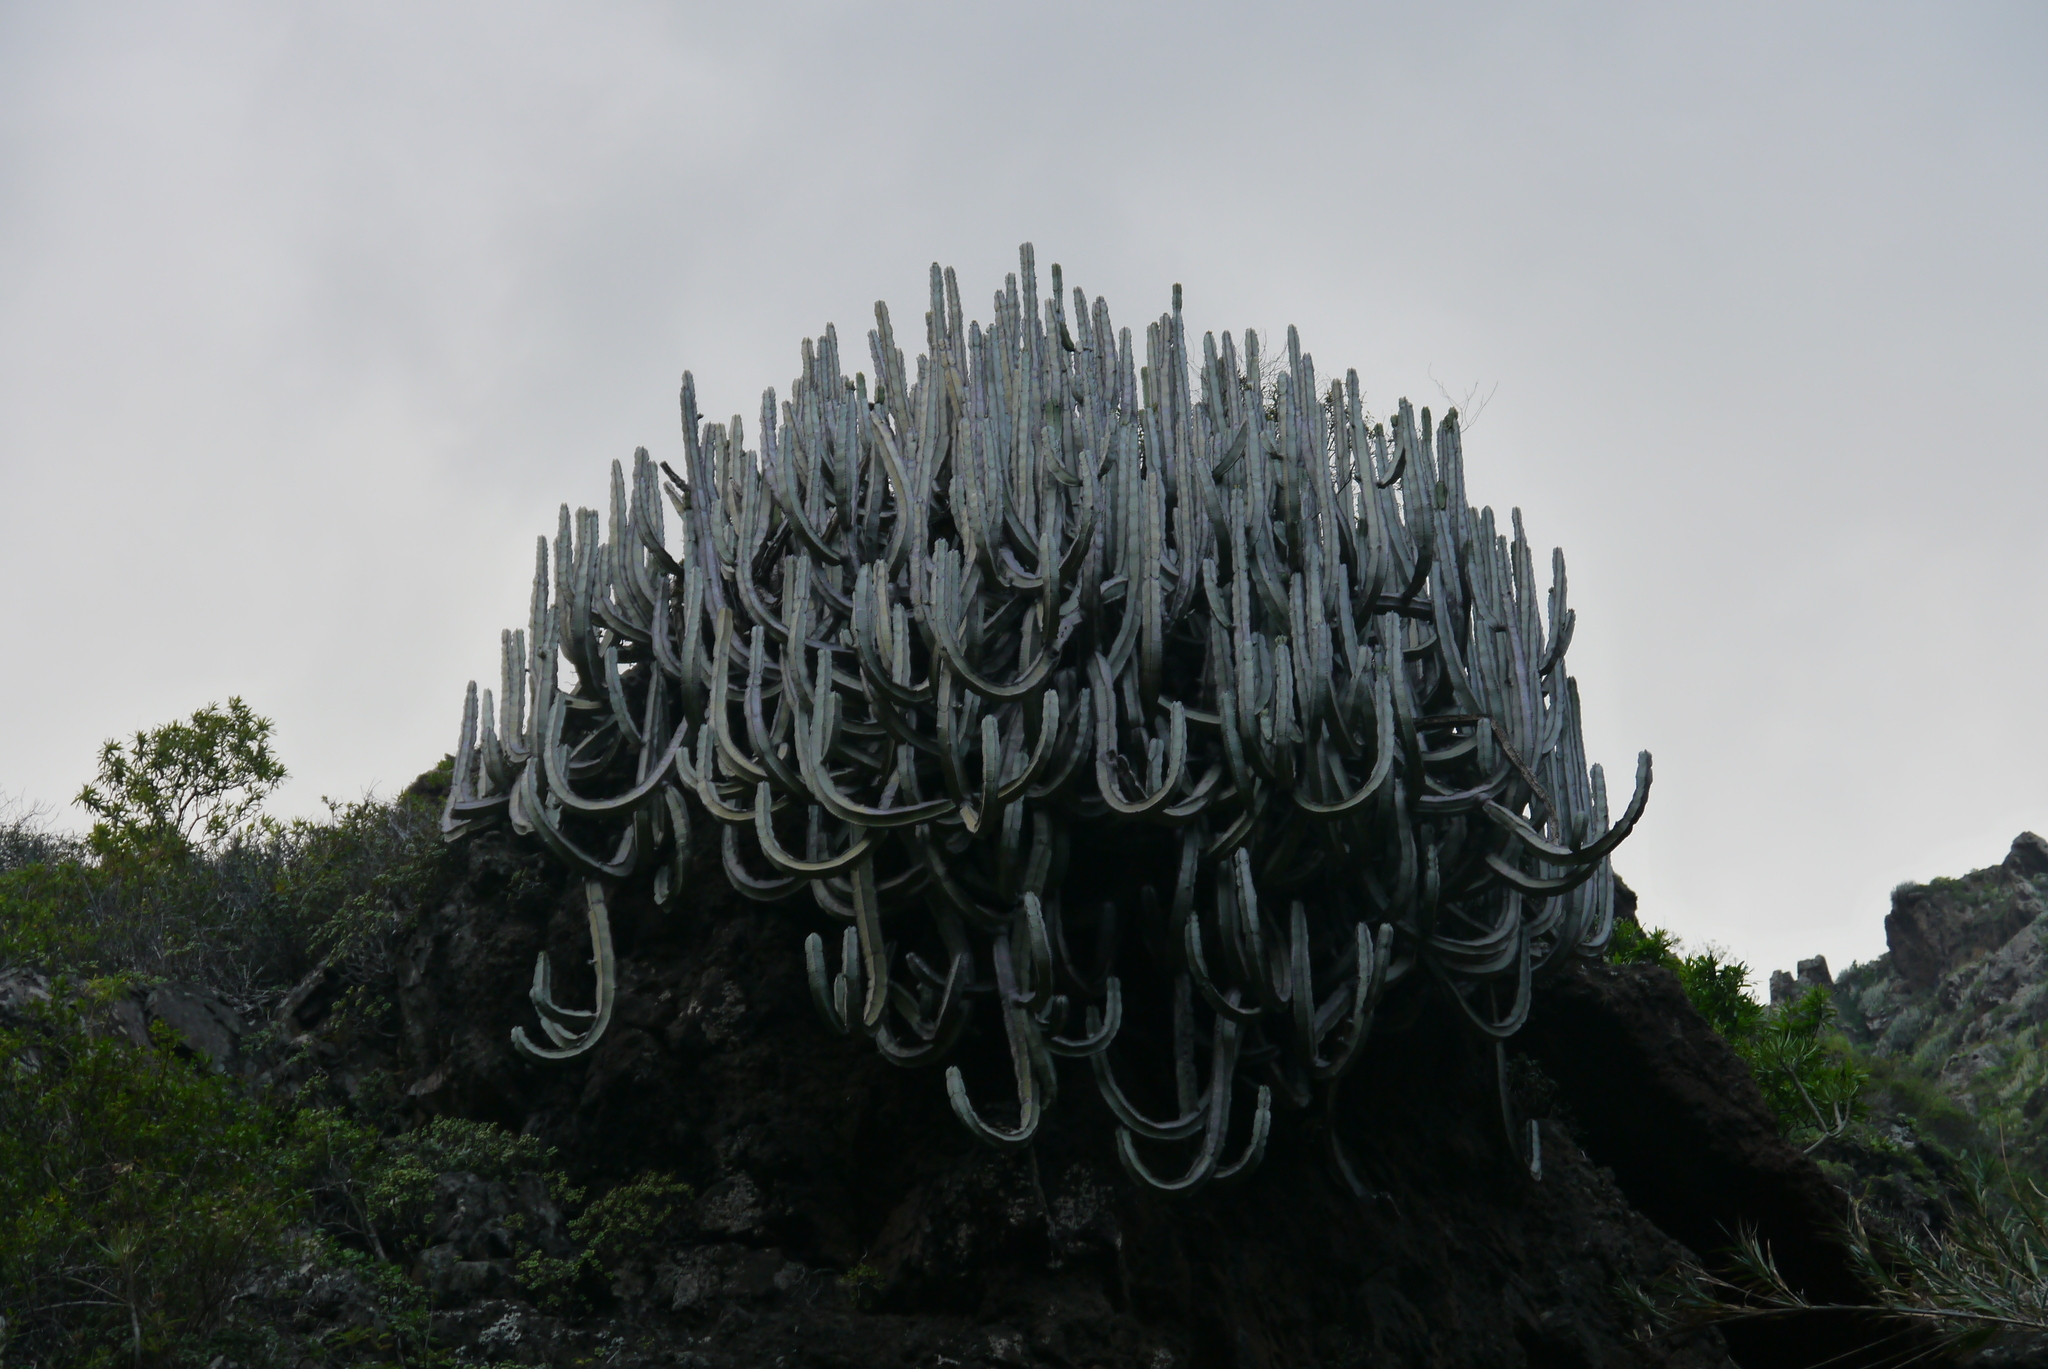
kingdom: Plantae
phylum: Tracheophyta
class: Magnoliopsida
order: Malpighiales
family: Euphorbiaceae
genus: Euphorbia
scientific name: Euphorbia canariensis
